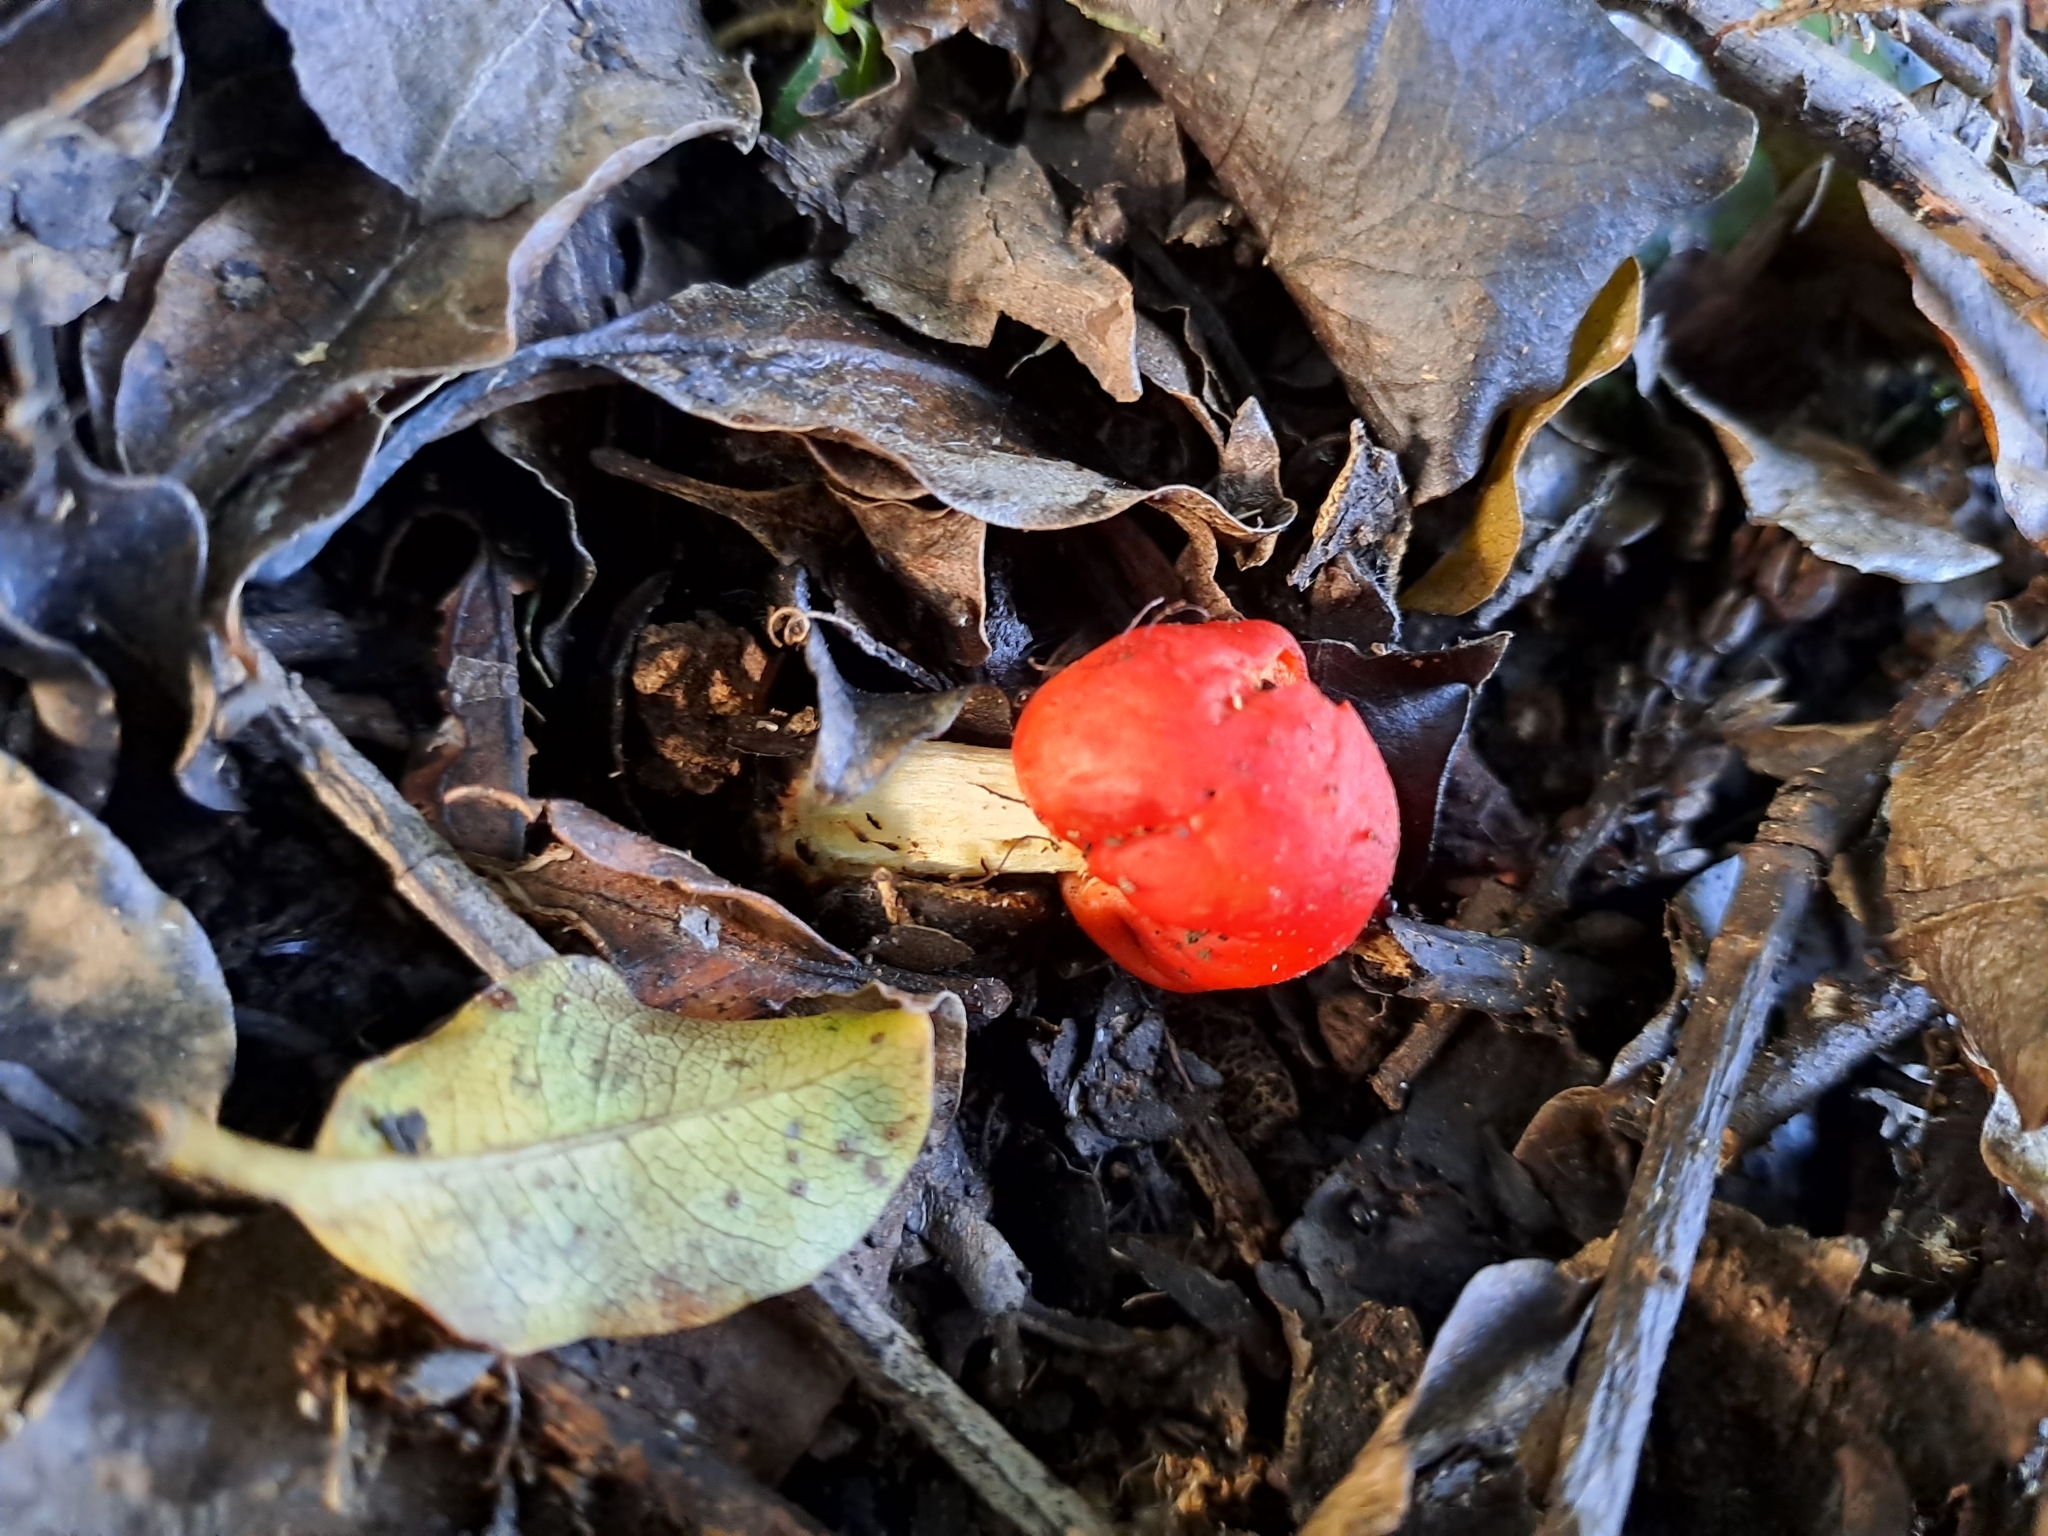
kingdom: Fungi
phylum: Basidiomycota
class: Agaricomycetes
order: Agaricales
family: Strophariaceae
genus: Leratiomyces
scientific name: Leratiomyces erythrocephalus
